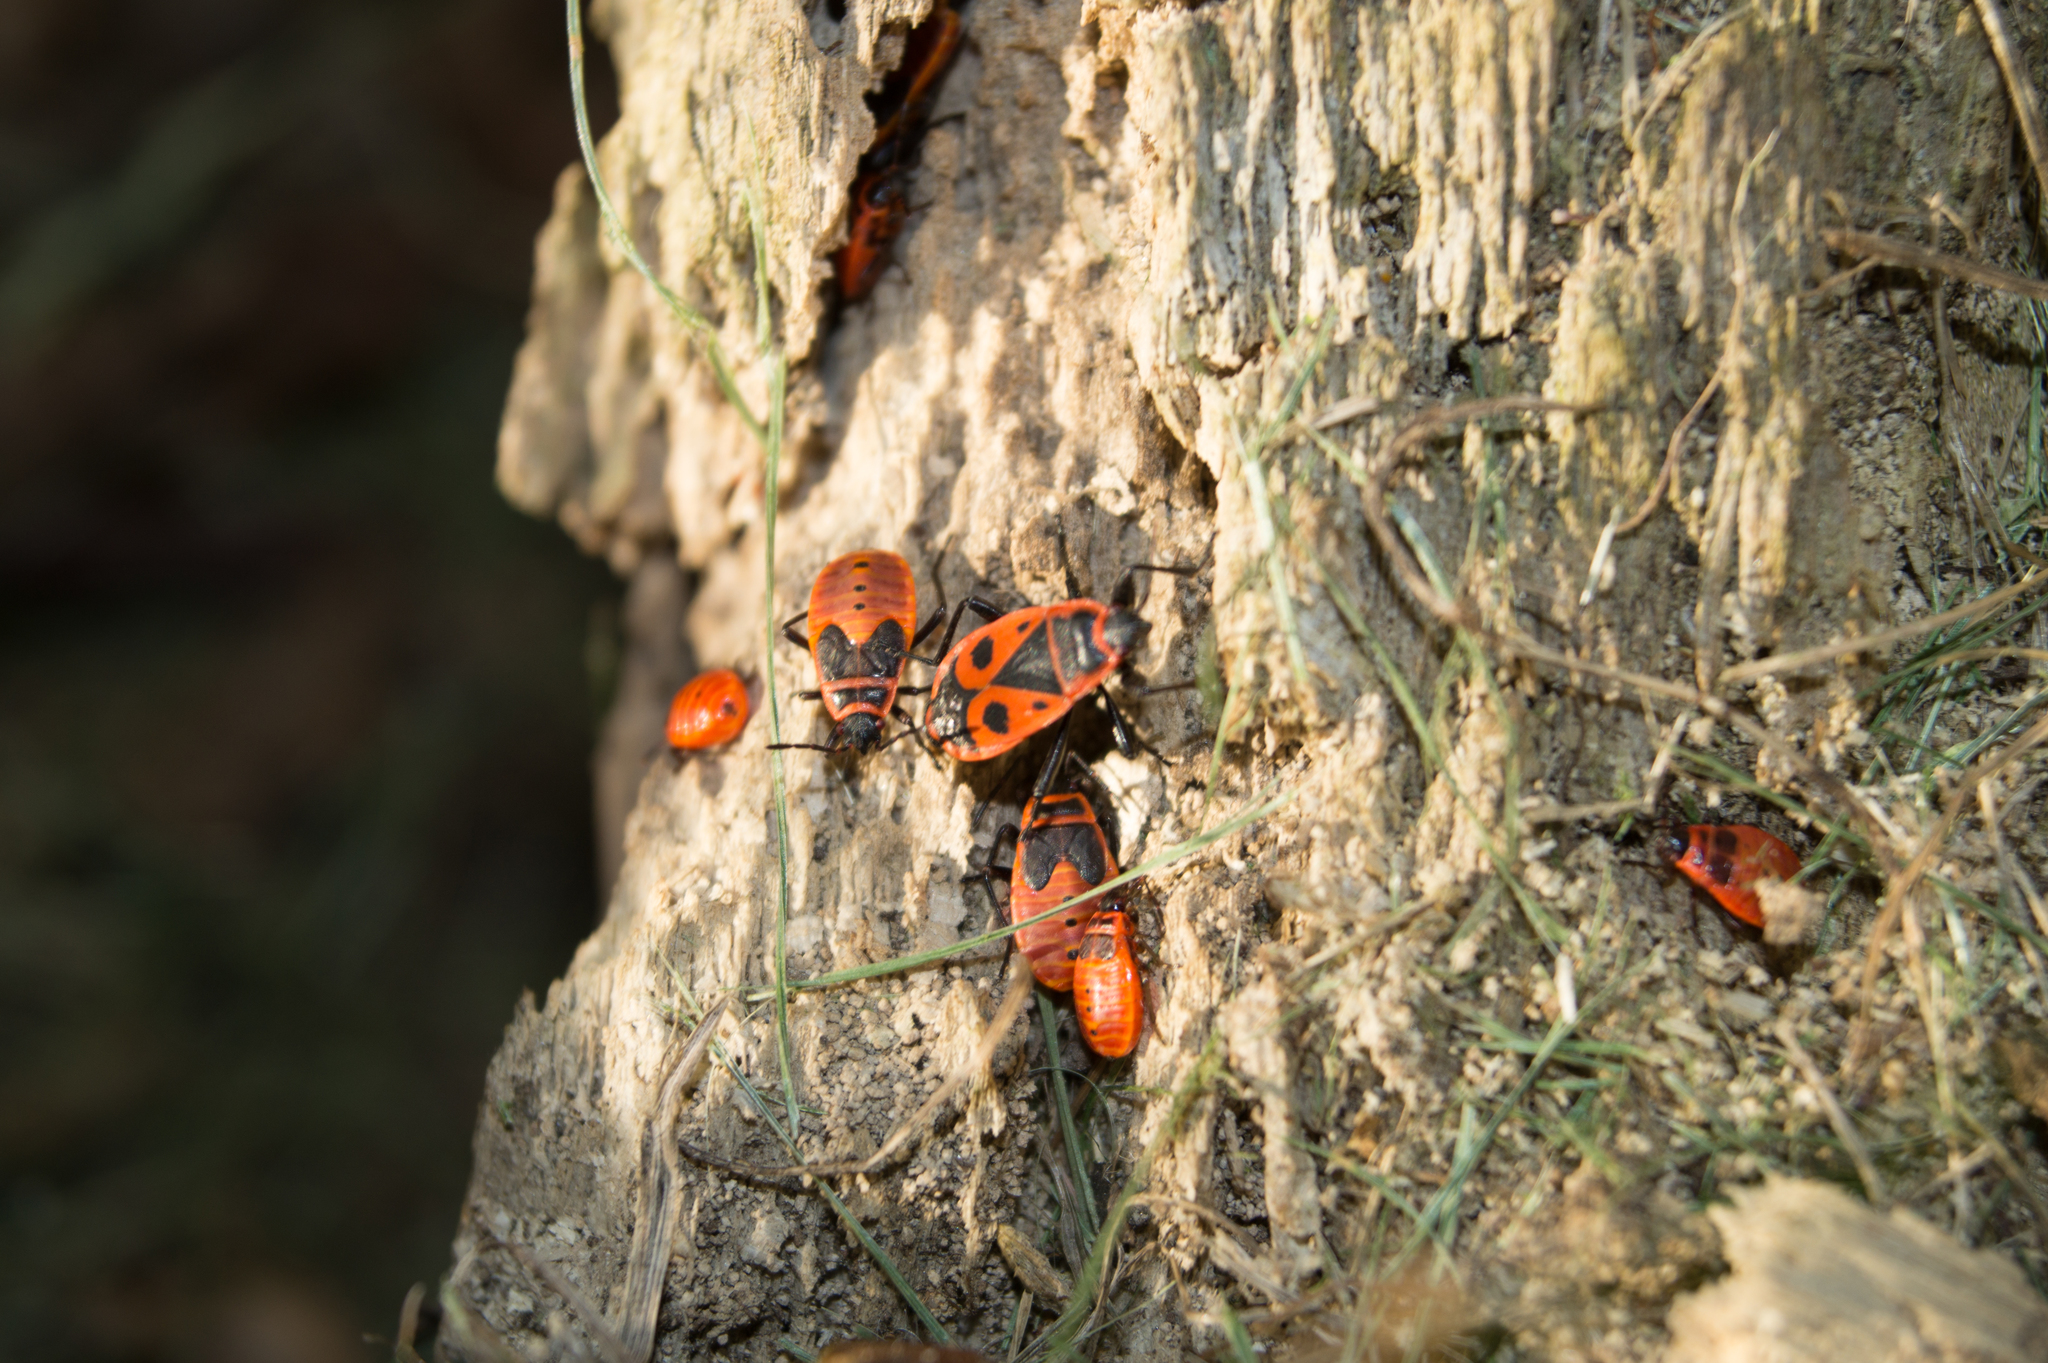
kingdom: Animalia
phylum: Arthropoda
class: Insecta
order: Hemiptera
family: Pyrrhocoridae
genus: Pyrrhocoris
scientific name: Pyrrhocoris apterus
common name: Firebug
